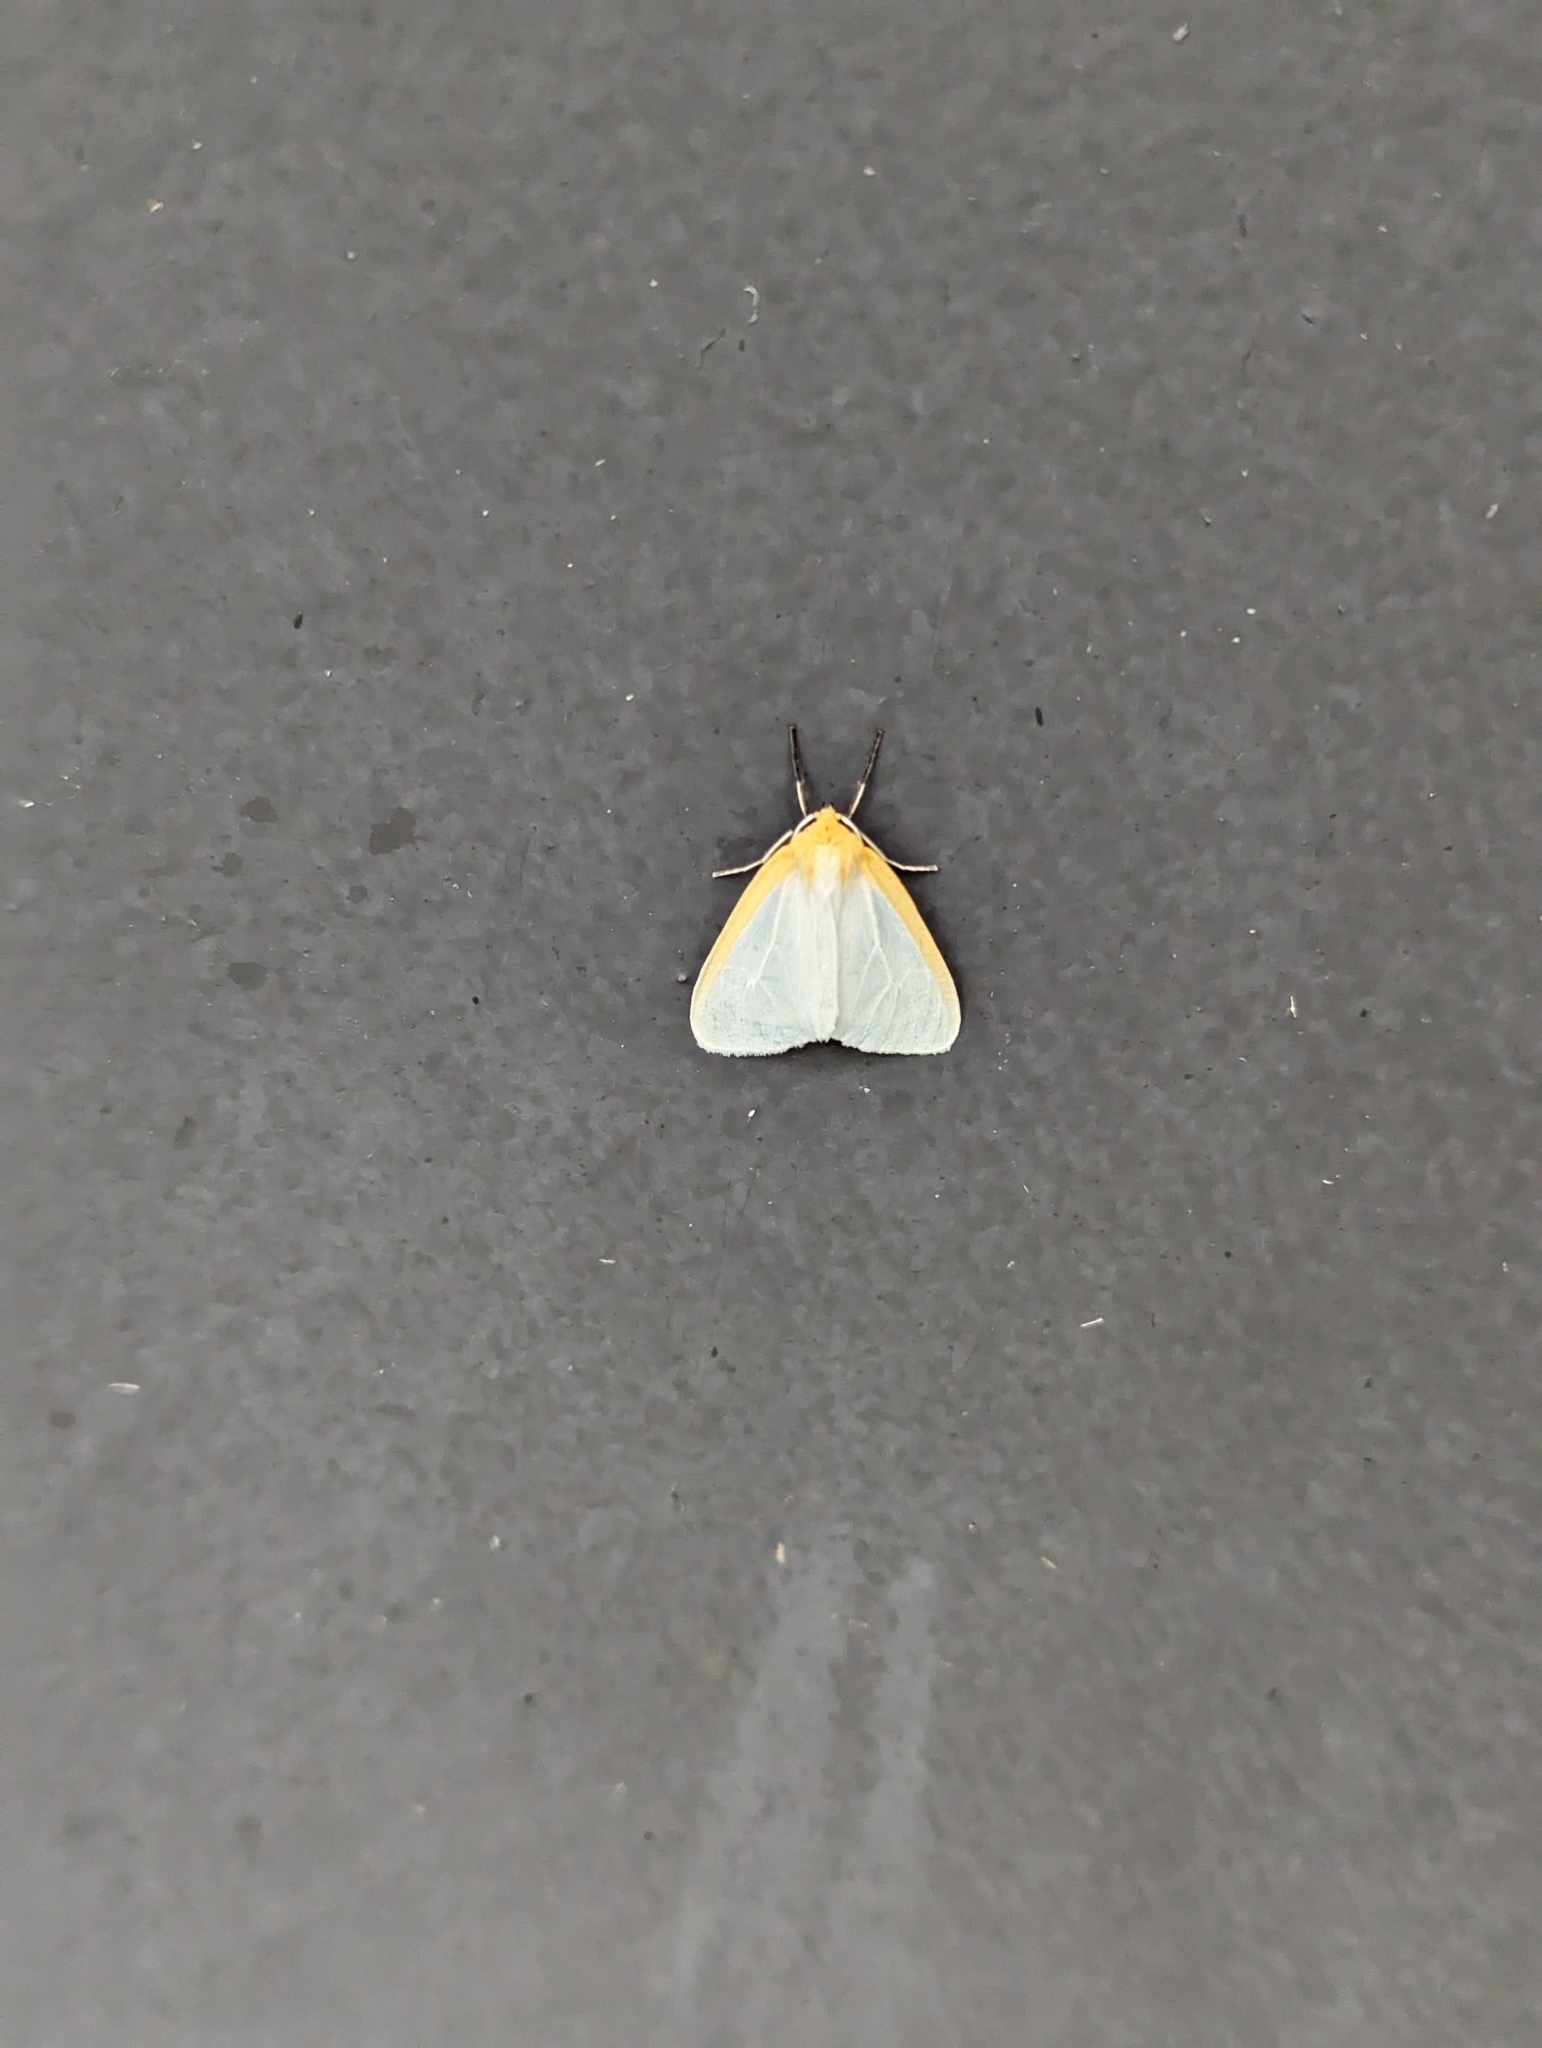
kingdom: Animalia
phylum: Arthropoda
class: Insecta
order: Lepidoptera
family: Erebidae
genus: Cycnia
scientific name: Cycnia tenera
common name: Delicate cycnia moth
